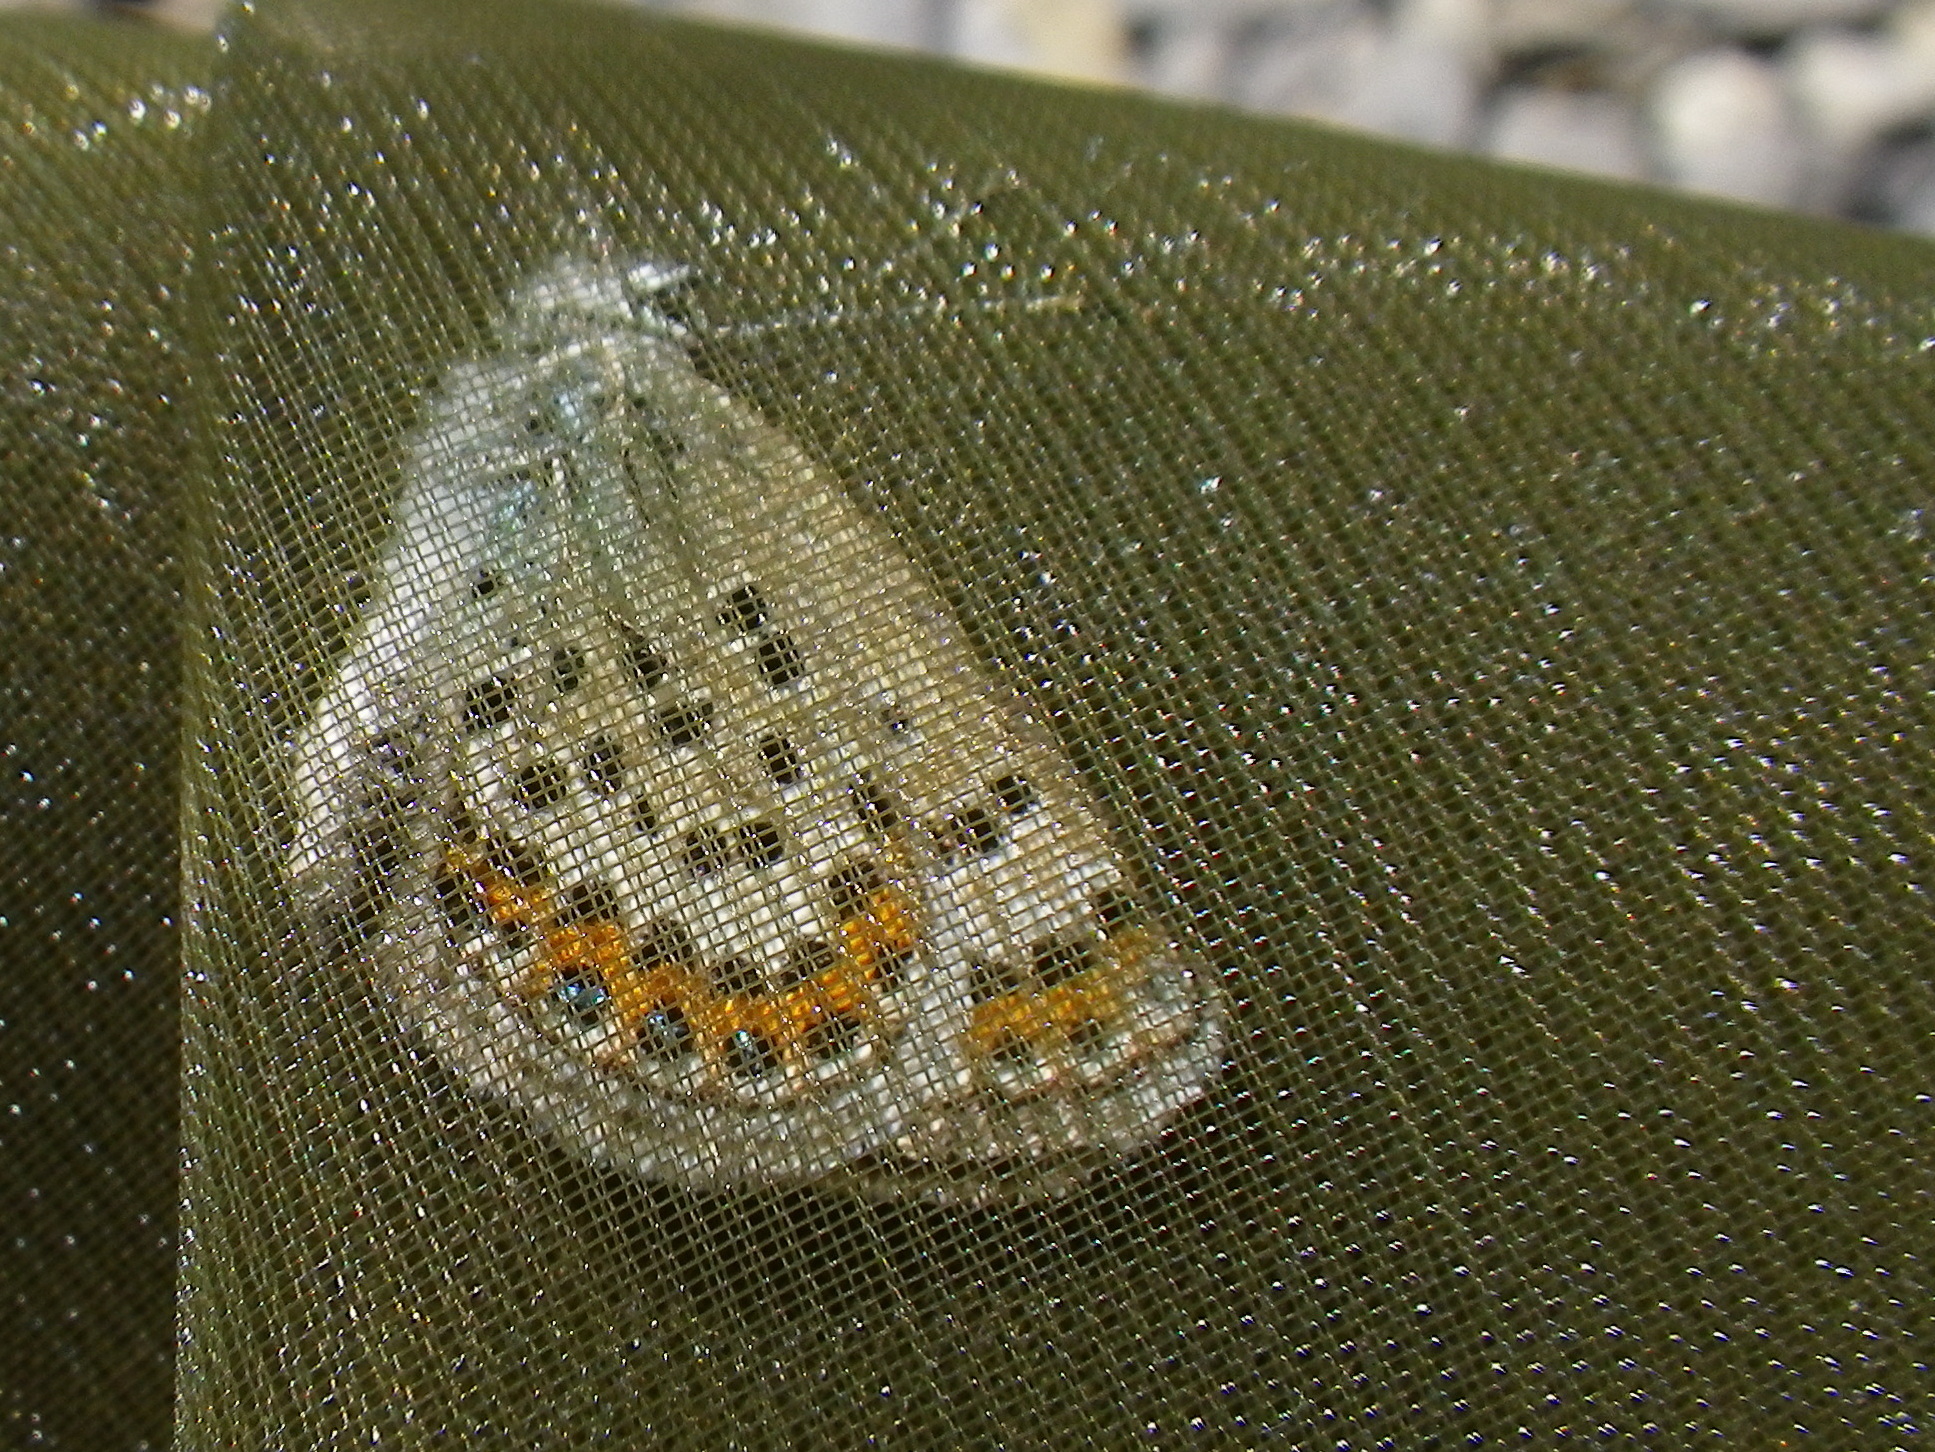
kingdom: Animalia
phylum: Arthropoda
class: Insecta
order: Lepidoptera
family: Lycaenidae
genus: Plebejus
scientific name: Plebejus argus
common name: Silver-studded blue
